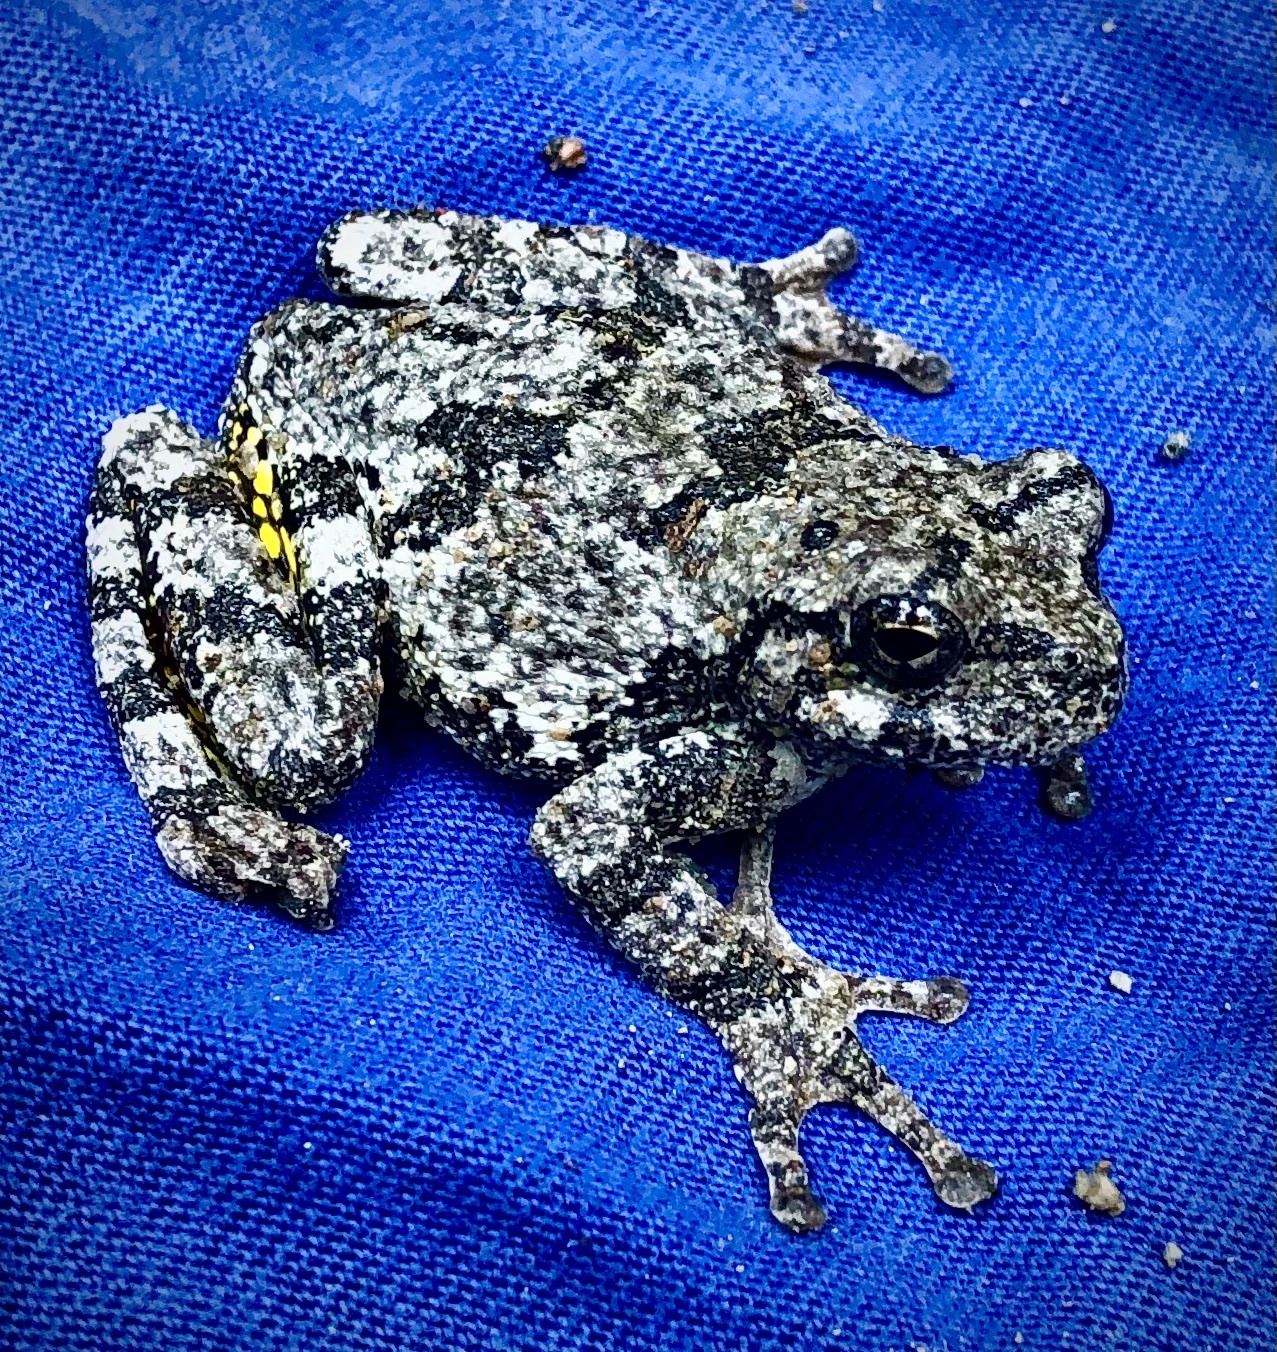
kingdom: Animalia
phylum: Chordata
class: Amphibia
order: Anura
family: Hylidae
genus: Dryophytes
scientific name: Dryophytes chrysoscelis
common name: Cope's gray treefrog
